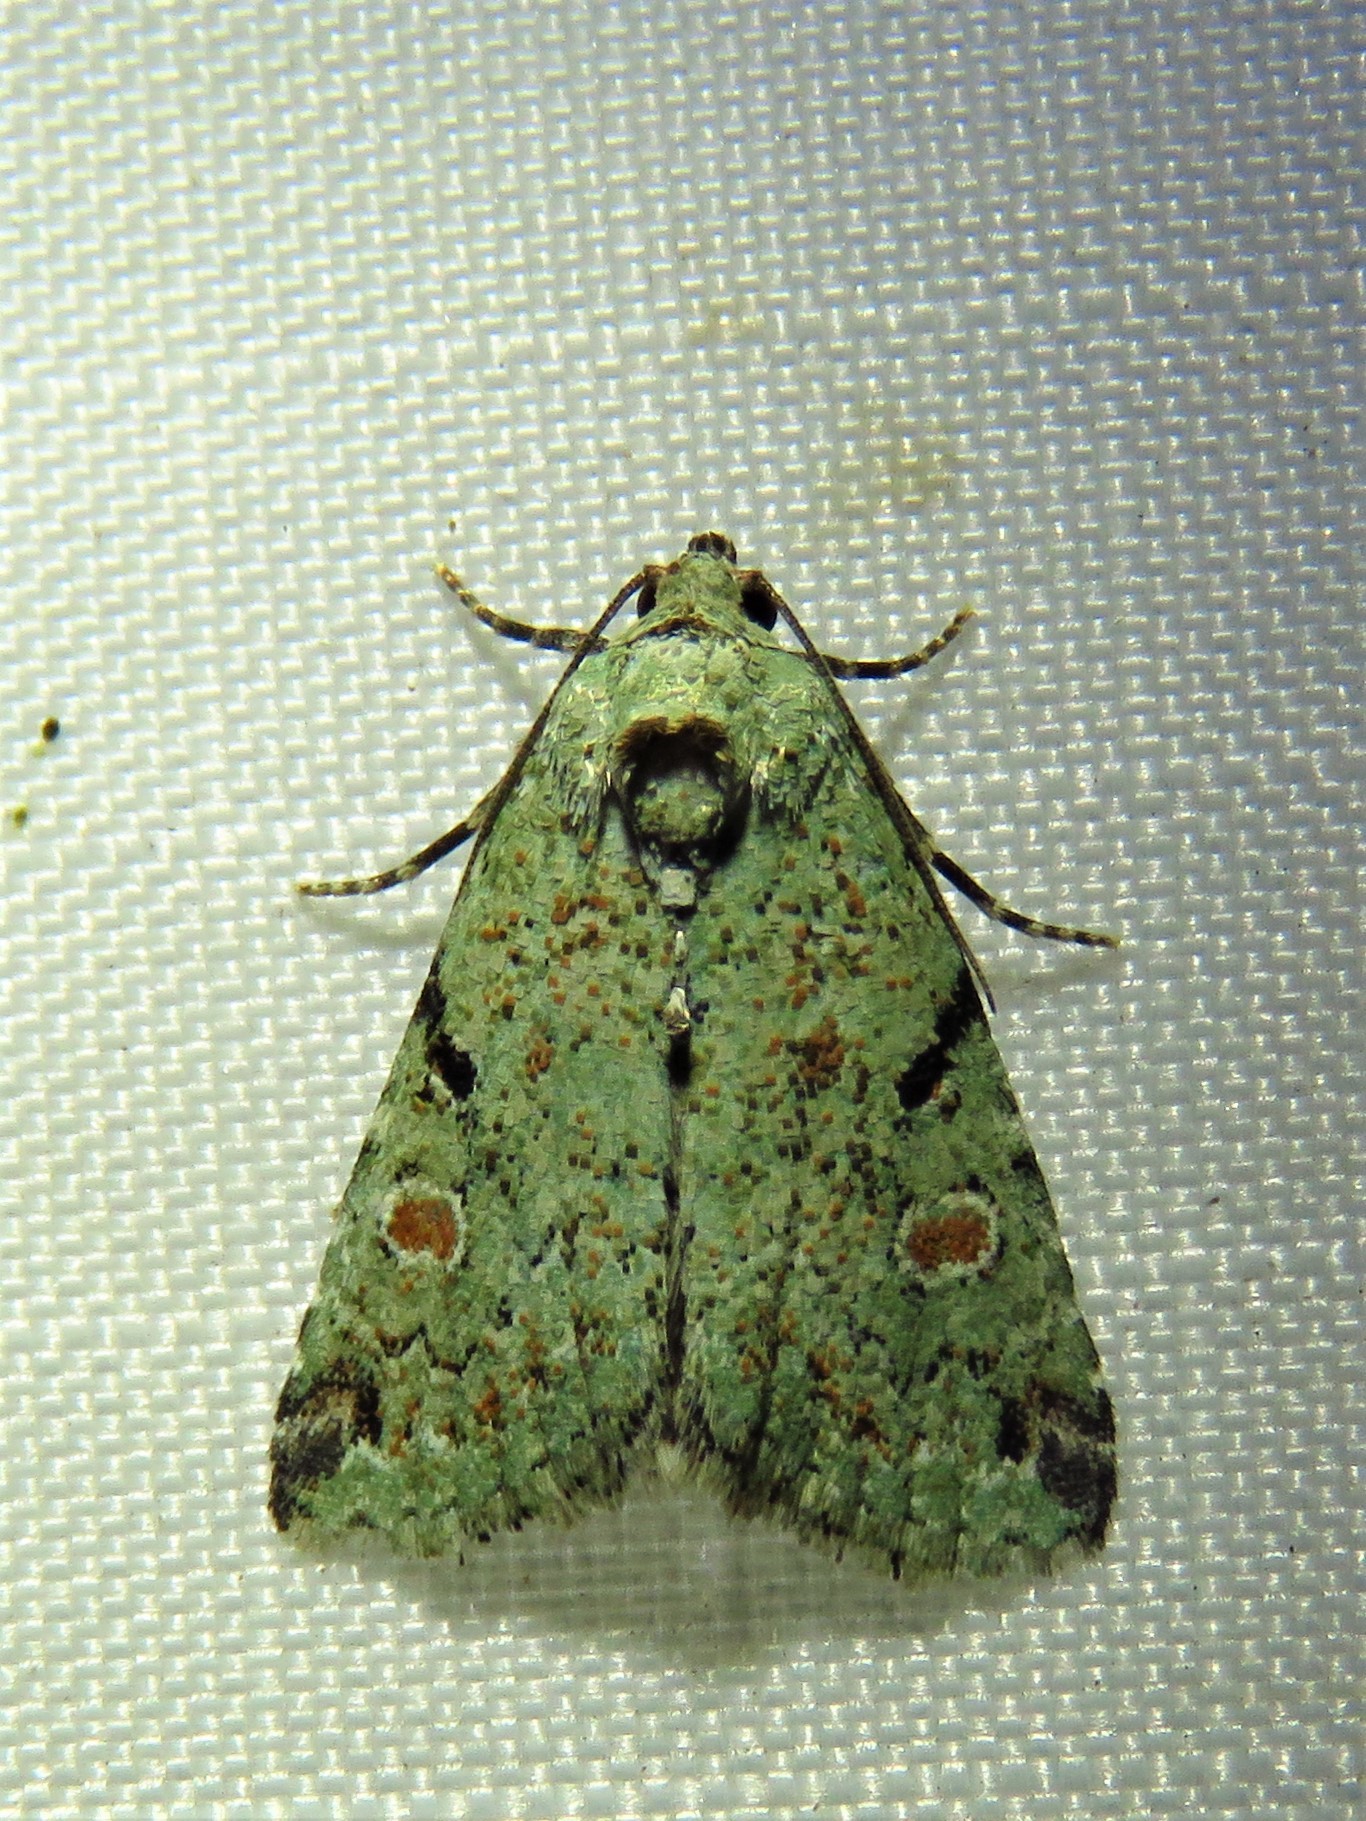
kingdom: Animalia
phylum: Arthropoda
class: Insecta
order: Lepidoptera
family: Noctuidae
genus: Maliattha
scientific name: Maliattha concinnimacula
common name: Red-spotted glyph
